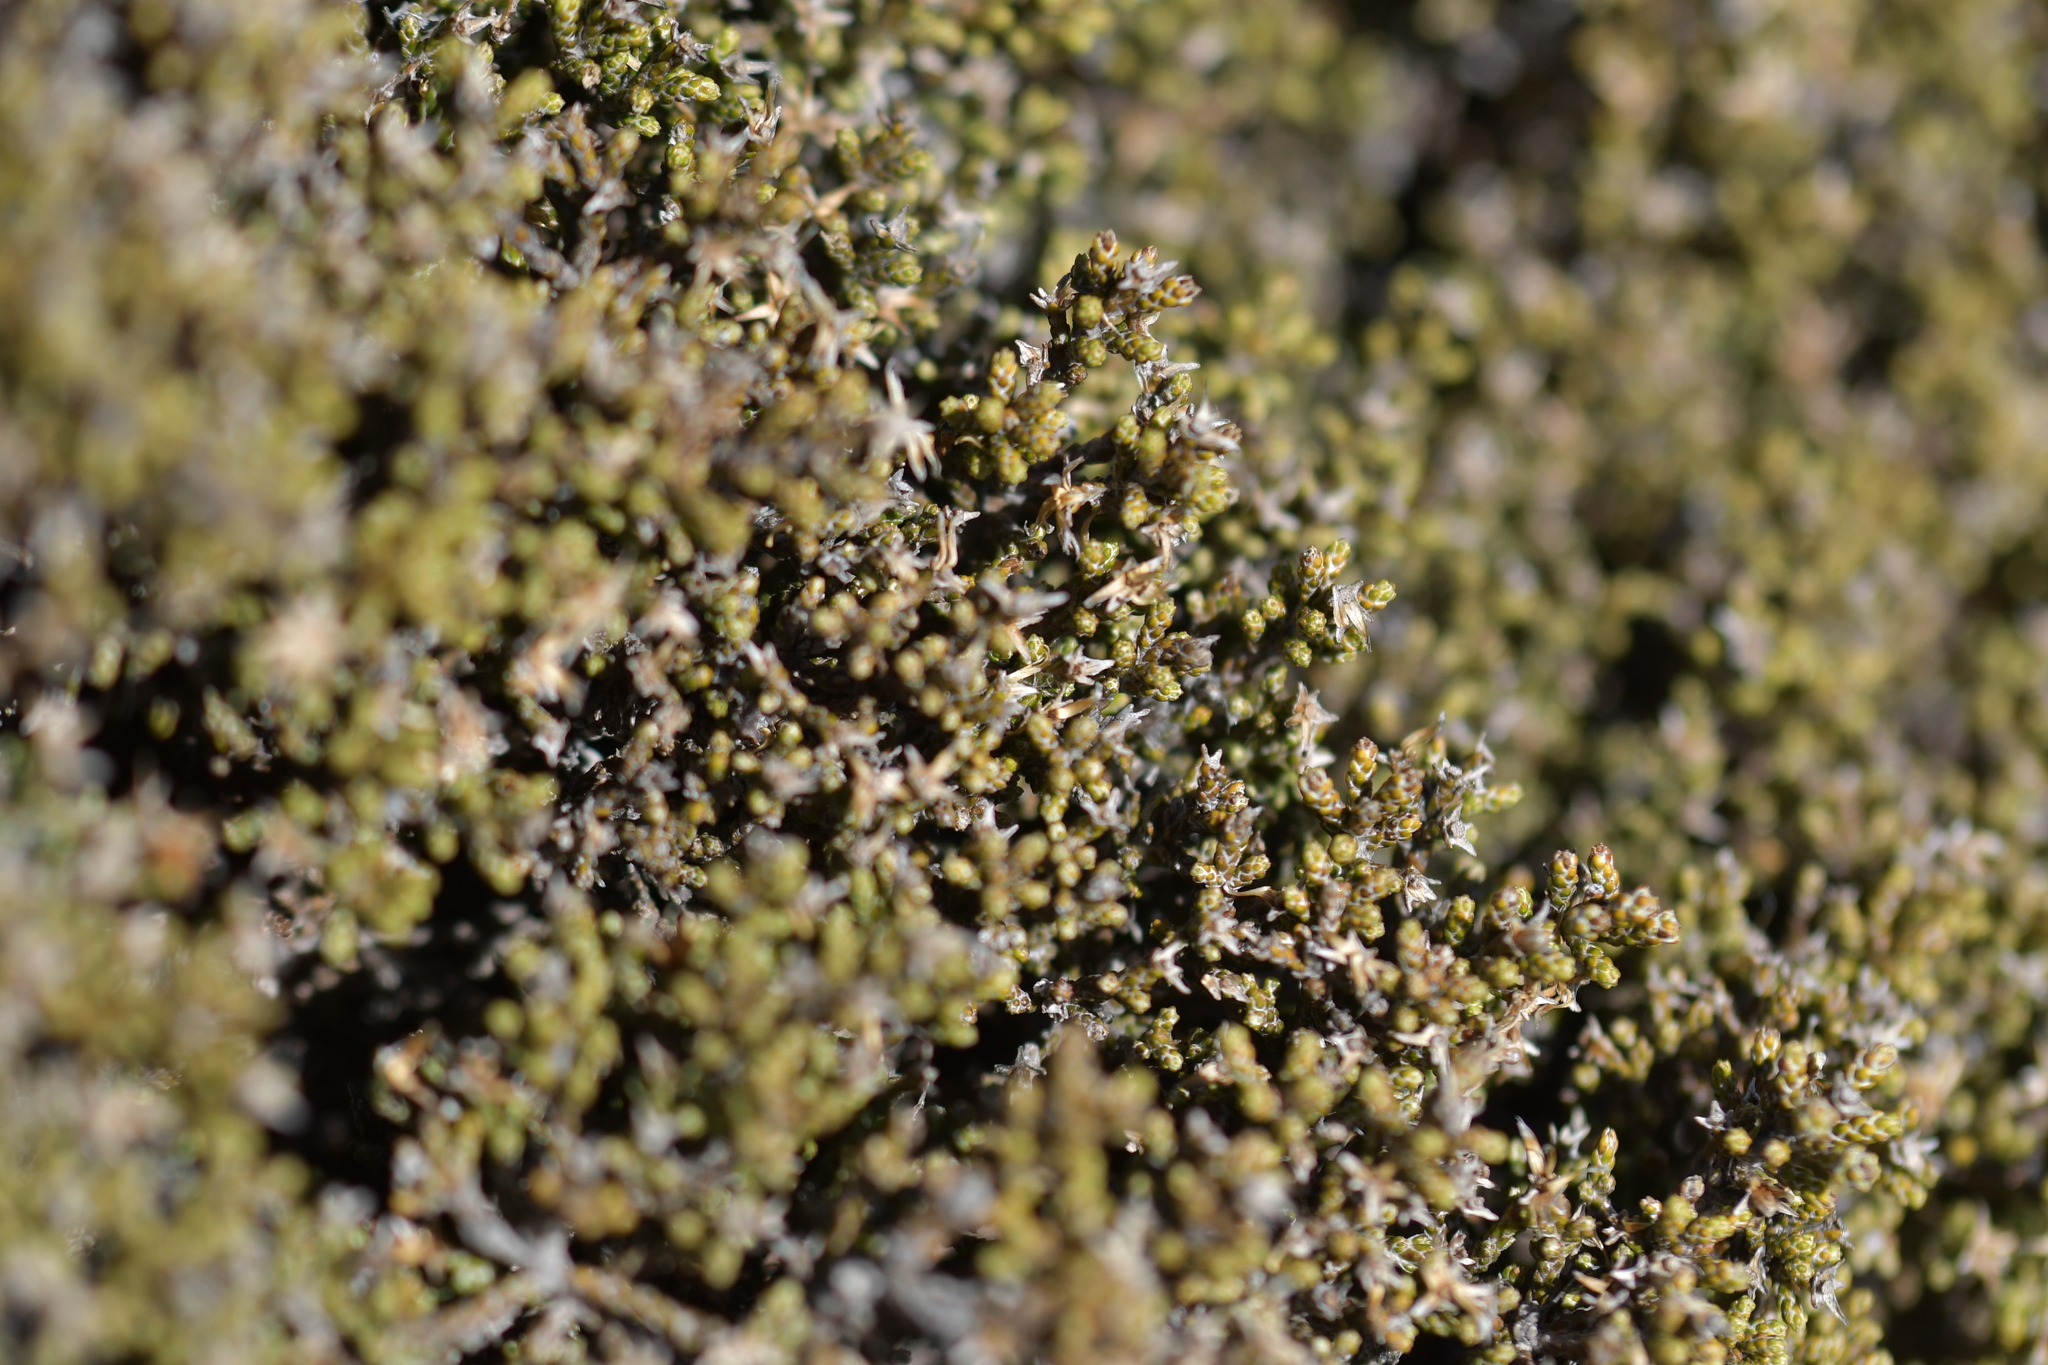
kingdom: Plantae
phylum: Tracheophyta
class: Magnoliopsida
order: Asterales
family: Asteraceae
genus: Ozothamnus
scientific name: Ozothamnus parvifolius
